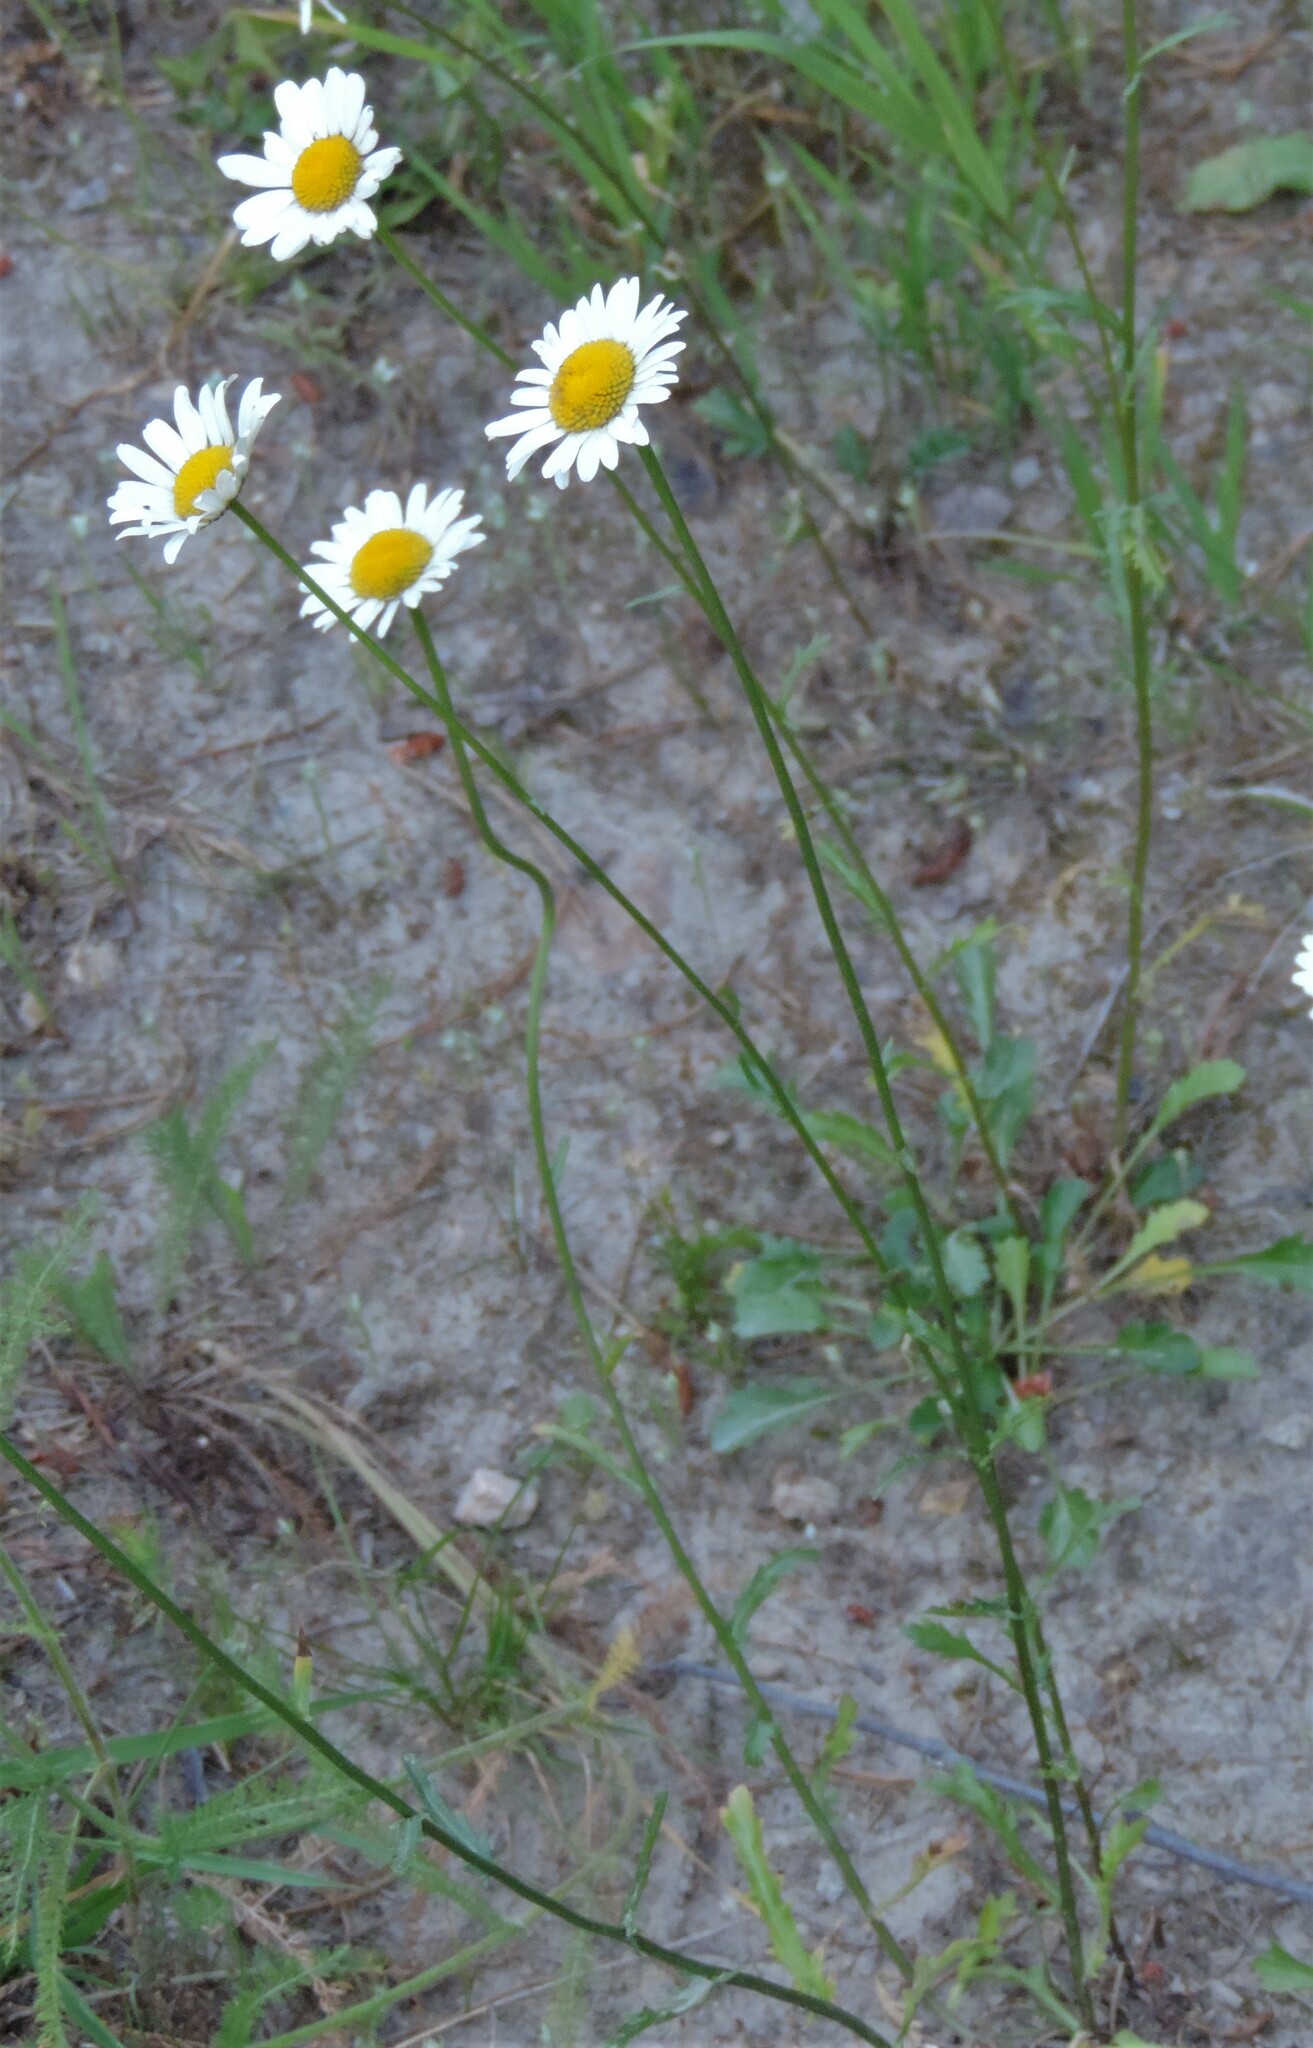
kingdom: Plantae
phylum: Tracheophyta
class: Magnoliopsida
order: Asterales
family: Asteraceae
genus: Leucanthemum
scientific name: Leucanthemum vulgare
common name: Oxeye daisy
